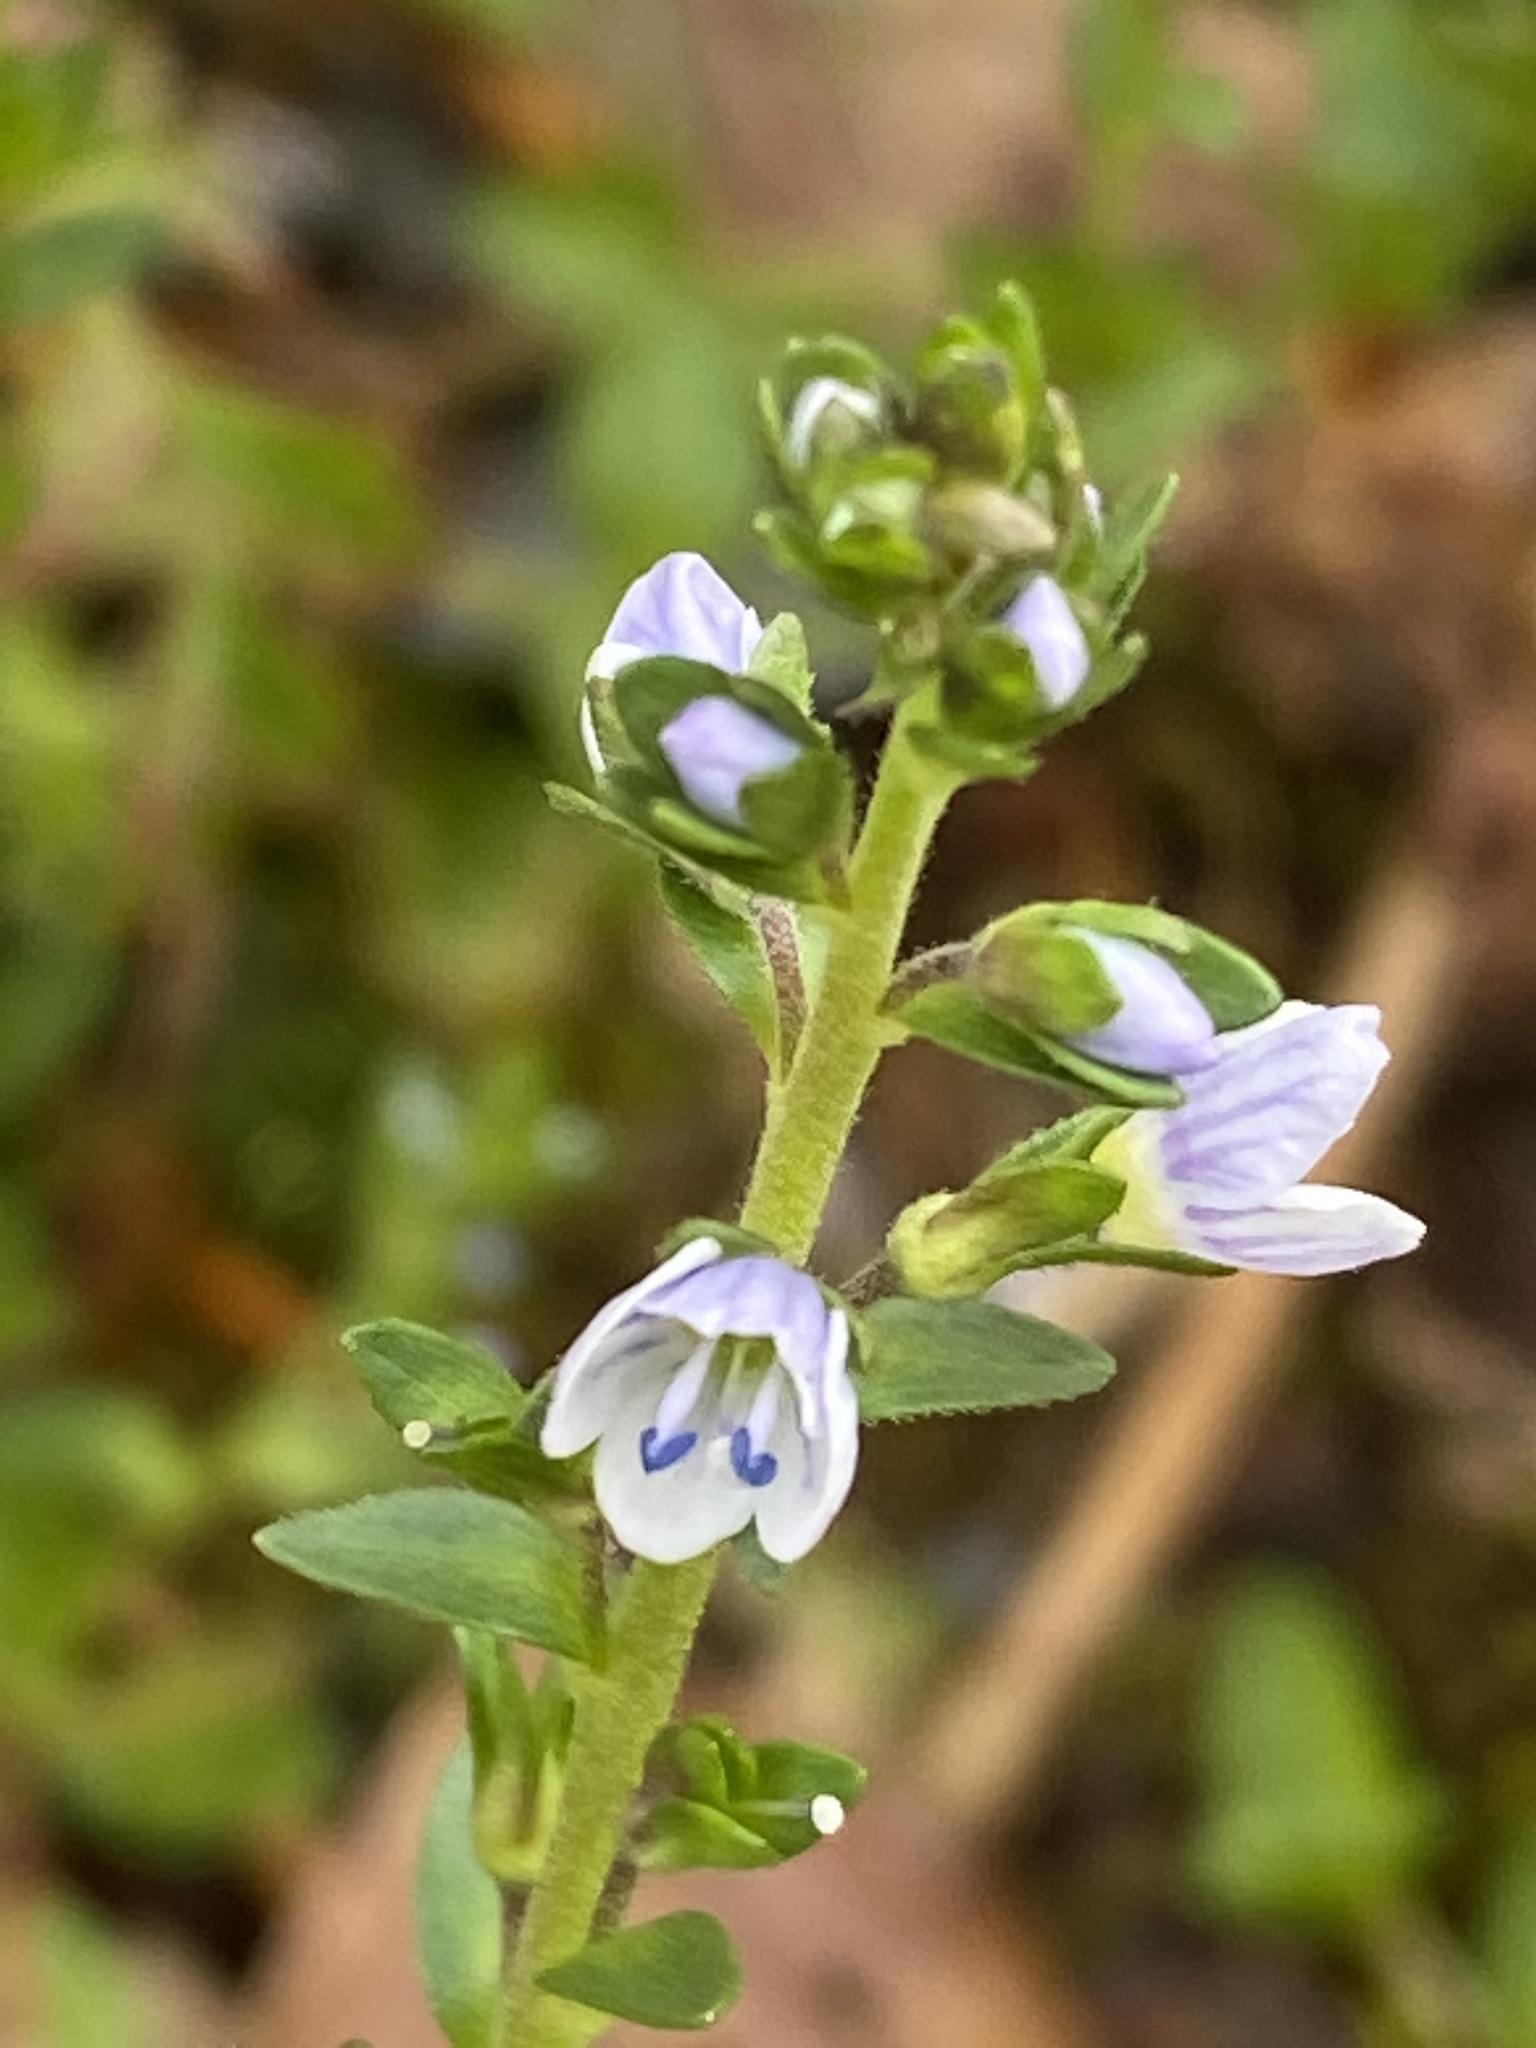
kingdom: Plantae
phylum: Tracheophyta
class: Magnoliopsida
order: Lamiales
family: Plantaginaceae
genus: Veronica
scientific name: Veronica serpyllifolia
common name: Thyme-leaved speedwell
